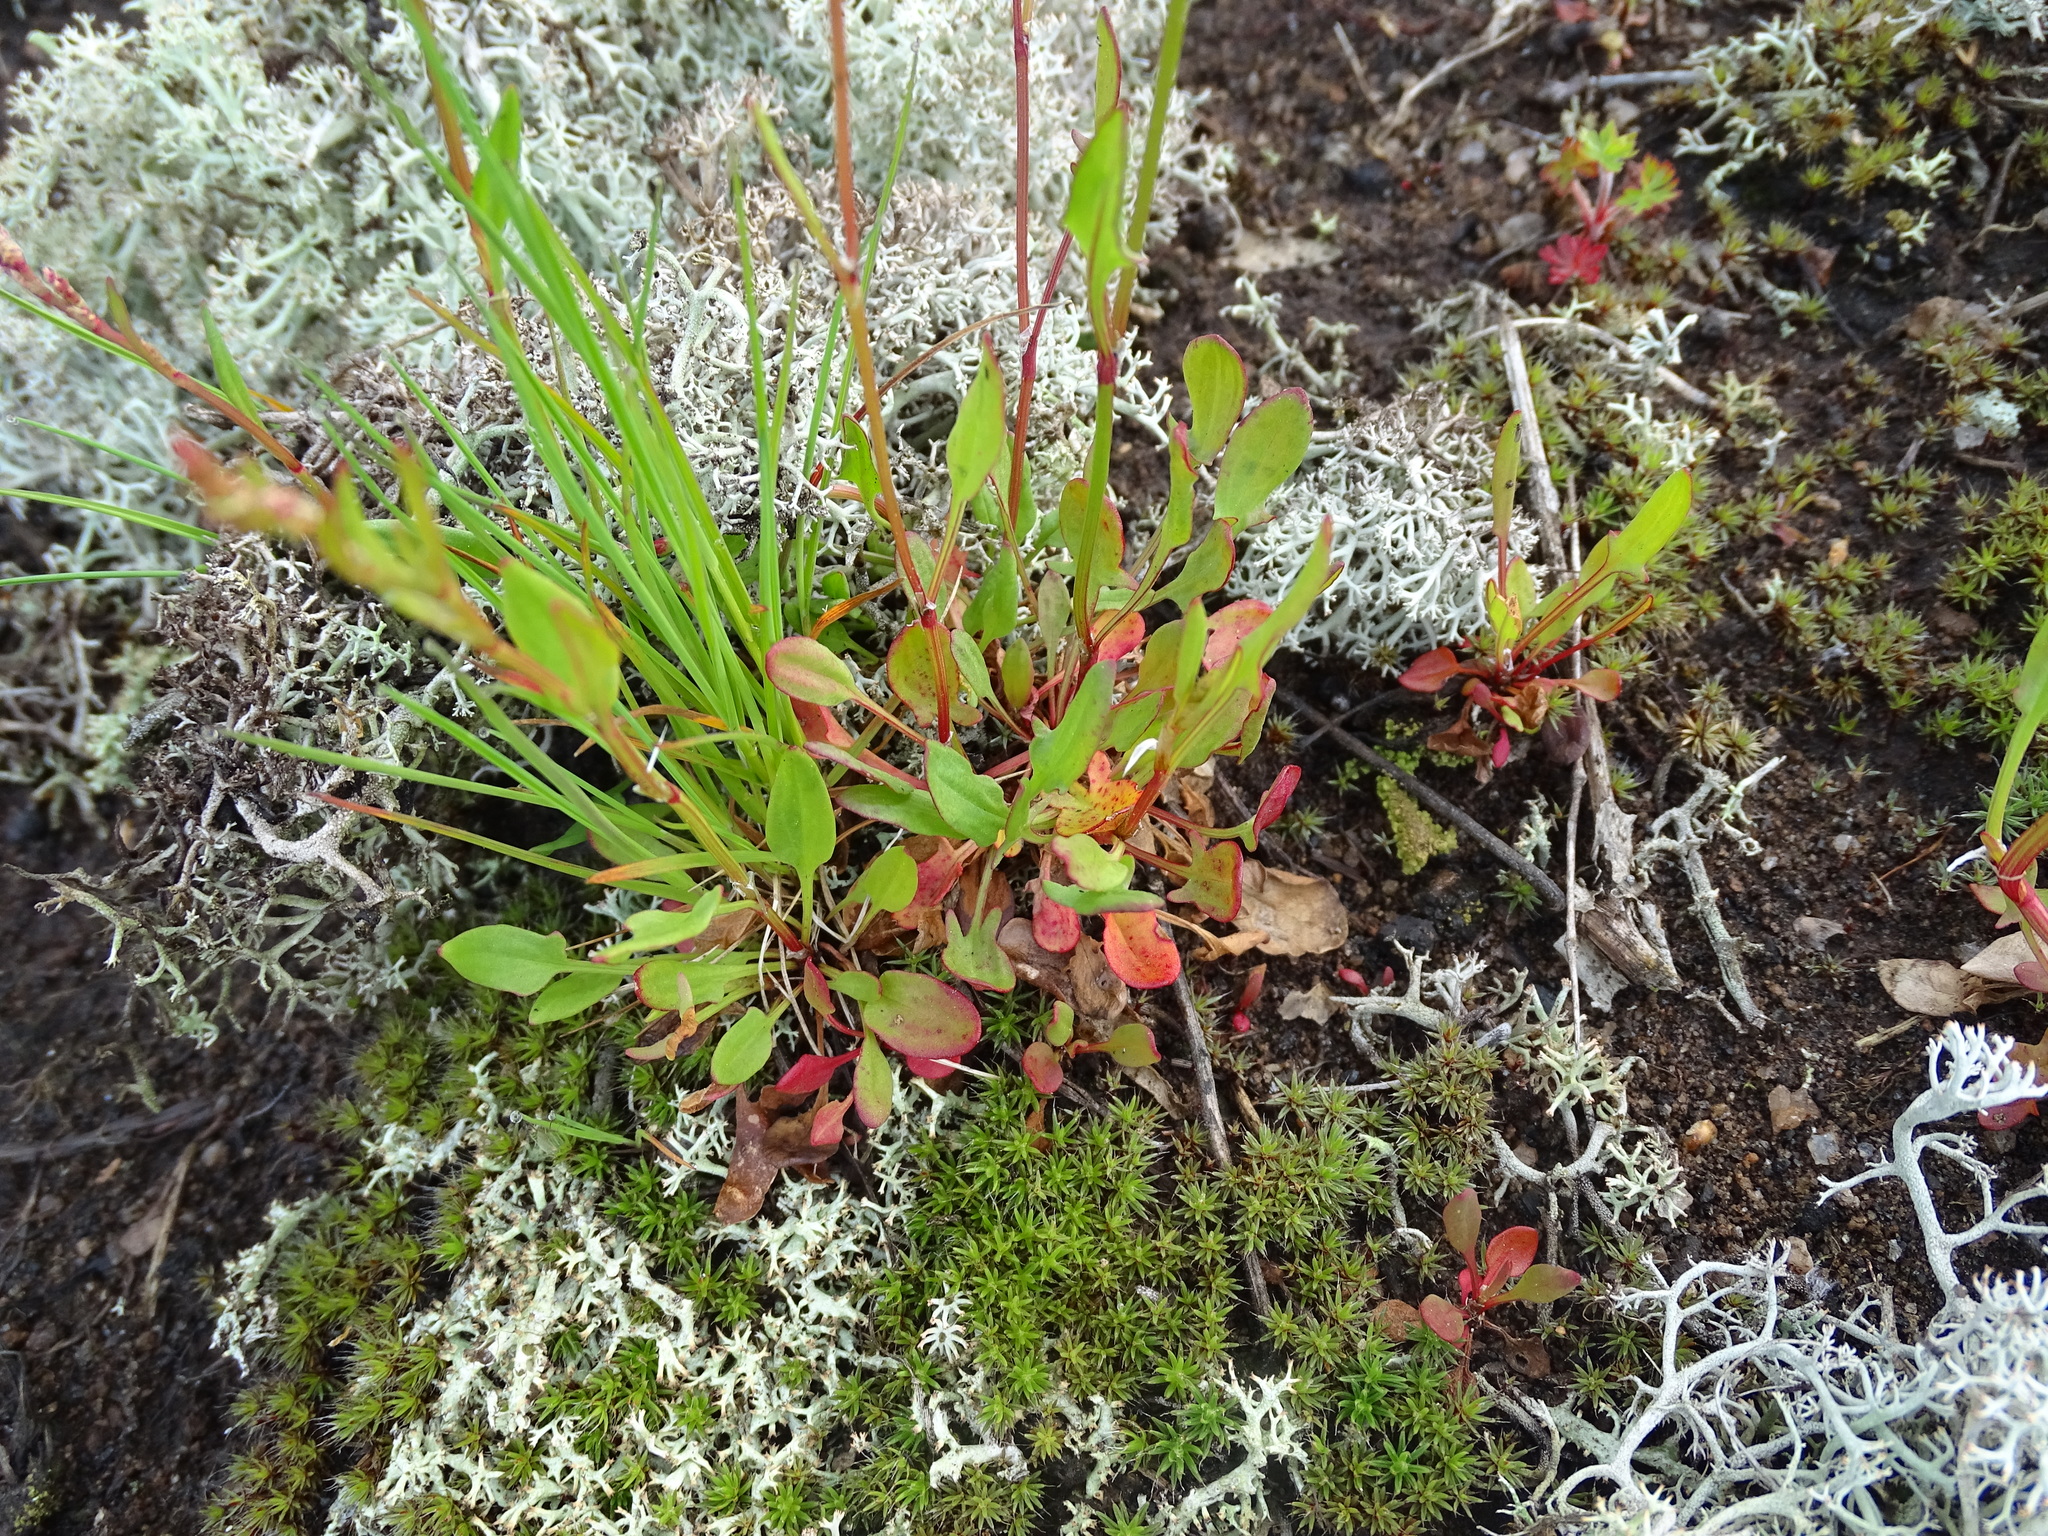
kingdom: Plantae
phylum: Tracheophyta
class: Magnoliopsida
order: Caryophyllales
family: Polygonaceae
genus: Rumex
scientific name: Rumex acetosella
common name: Common sheep sorrel
